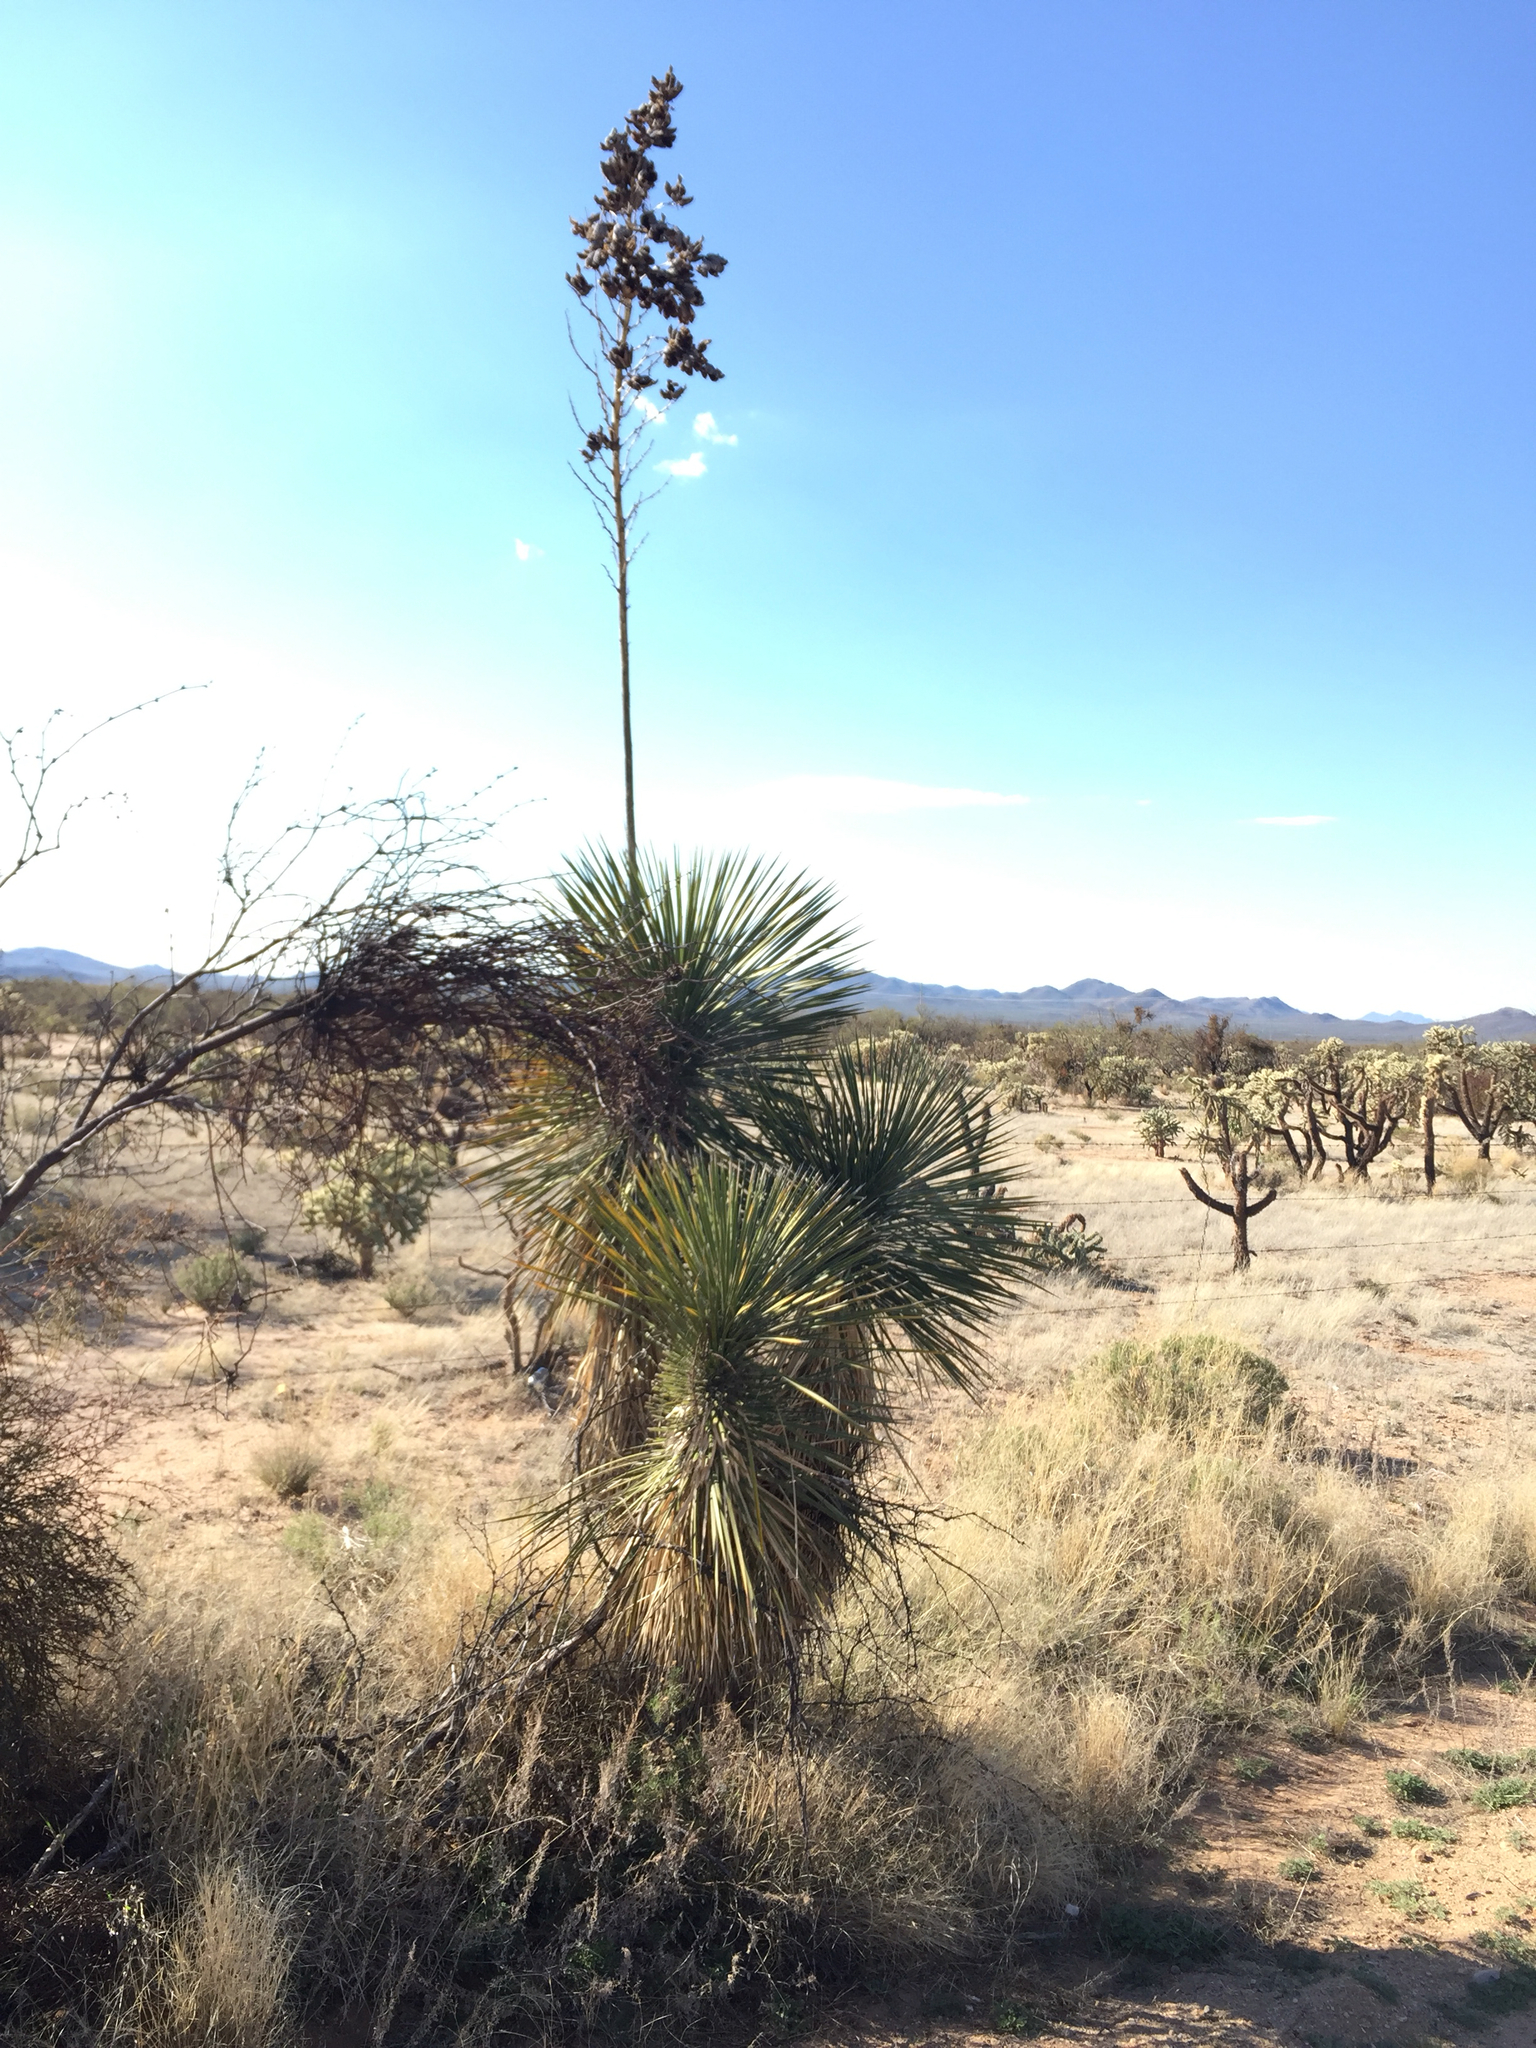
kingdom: Plantae
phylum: Tracheophyta
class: Liliopsida
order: Asparagales
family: Asparagaceae
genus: Yucca
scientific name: Yucca elata
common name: Palmella
